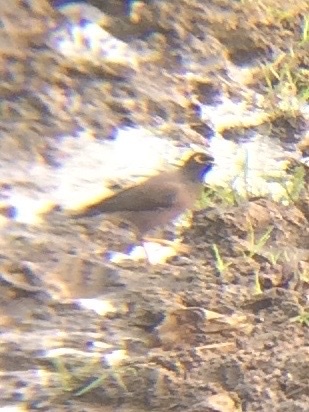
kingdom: Animalia
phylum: Chordata
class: Aves
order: Passeriformes
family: Sturnidae
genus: Acridotheres
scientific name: Acridotheres tristis
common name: Common myna
